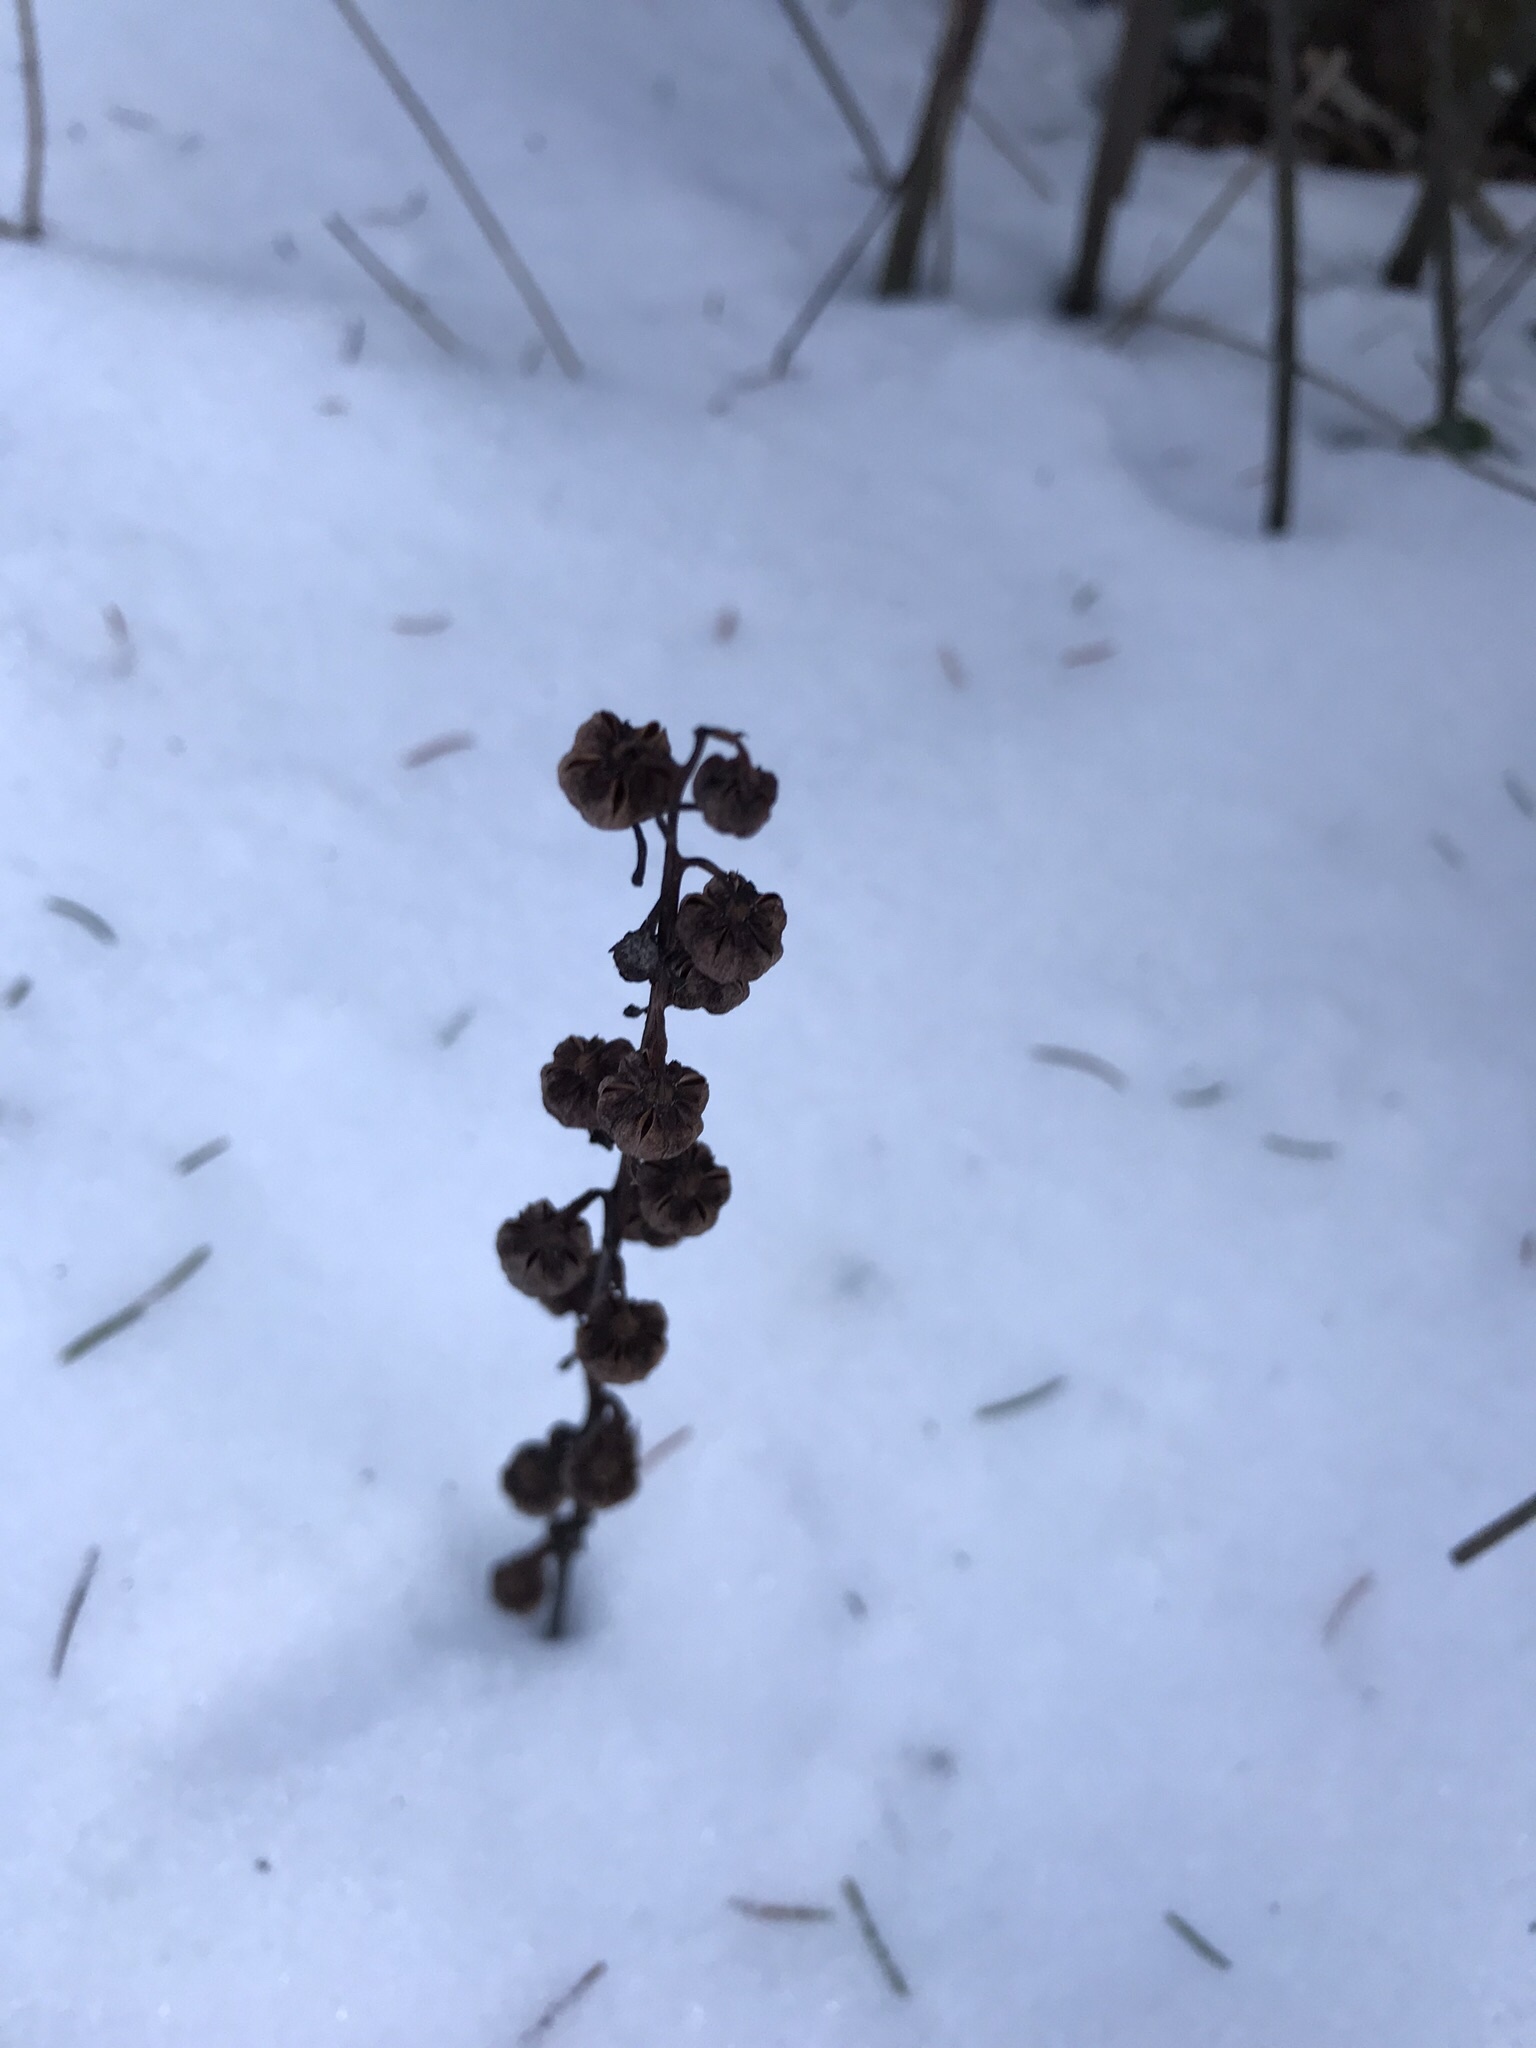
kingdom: Plantae
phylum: Tracheophyta
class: Magnoliopsida
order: Ericales
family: Ericaceae
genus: Pyrola
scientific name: Pyrola asarifolia
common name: Bog wintergreen
